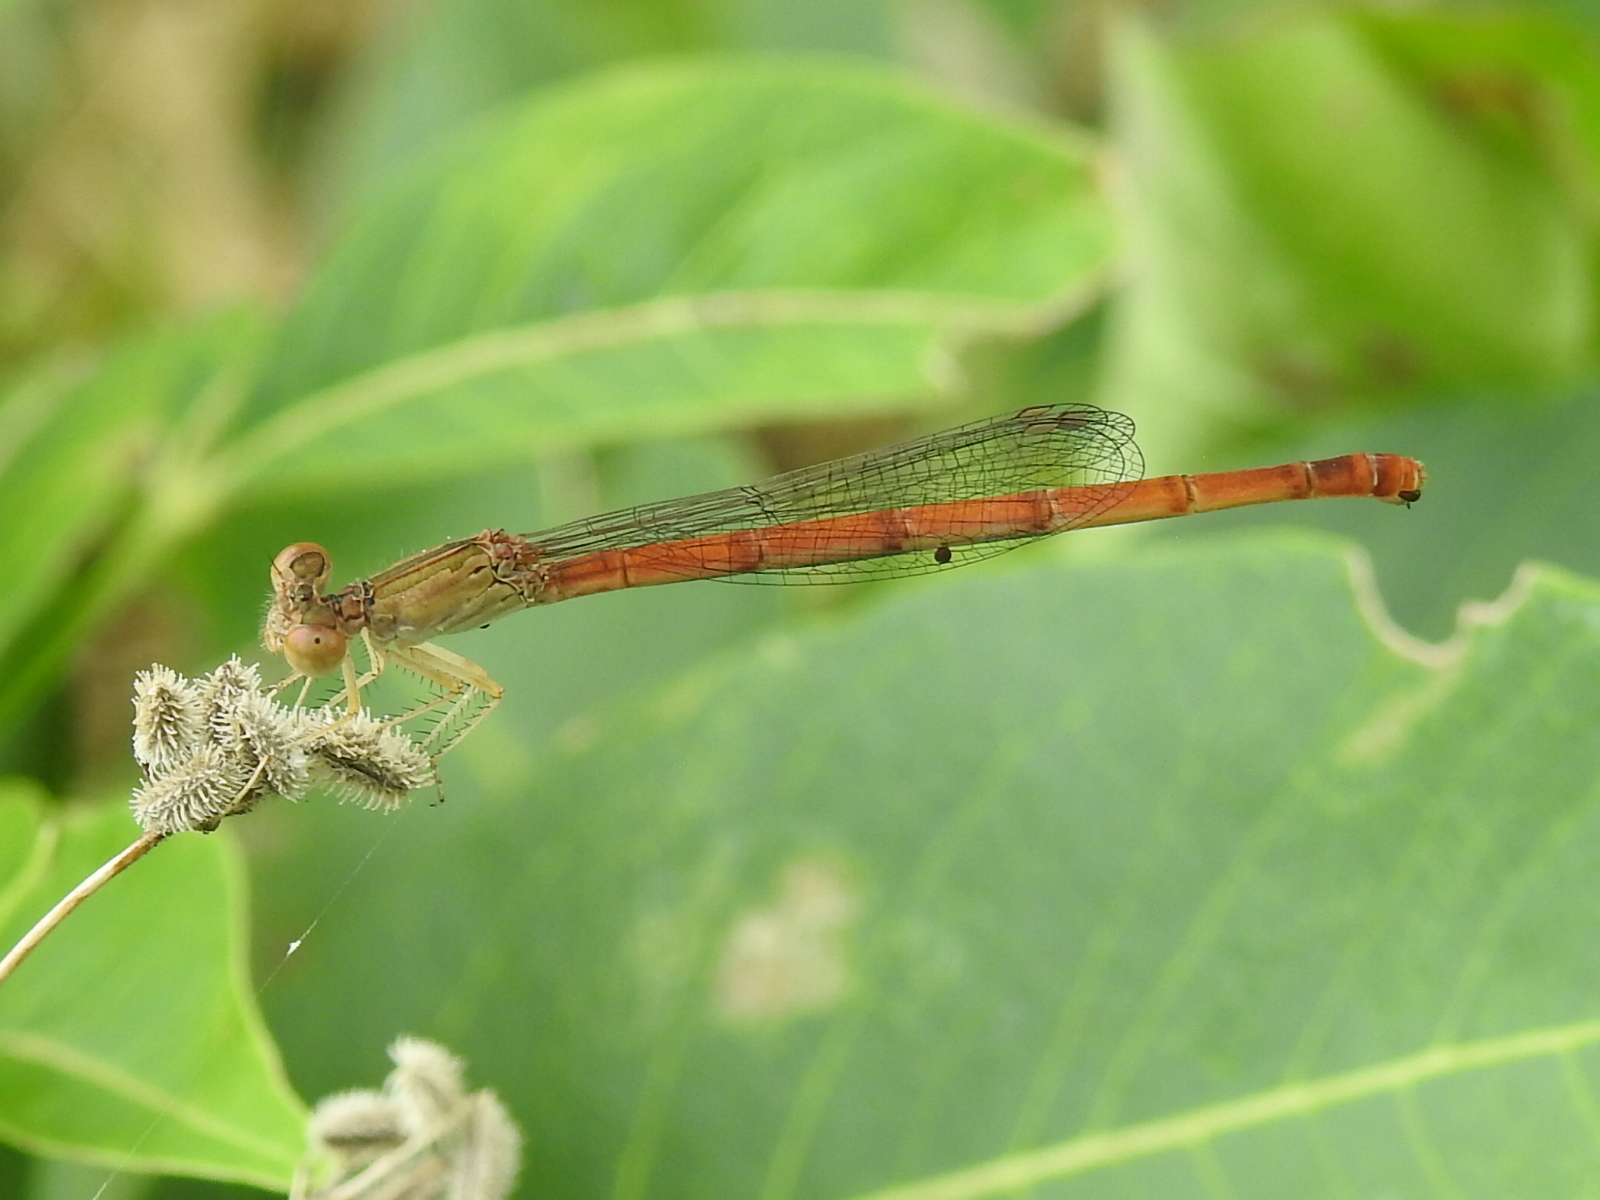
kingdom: Animalia
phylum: Arthropoda
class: Insecta
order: Odonata
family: Coenagrionidae
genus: Telebasis
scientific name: Telebasis salva
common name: Desert firetail
